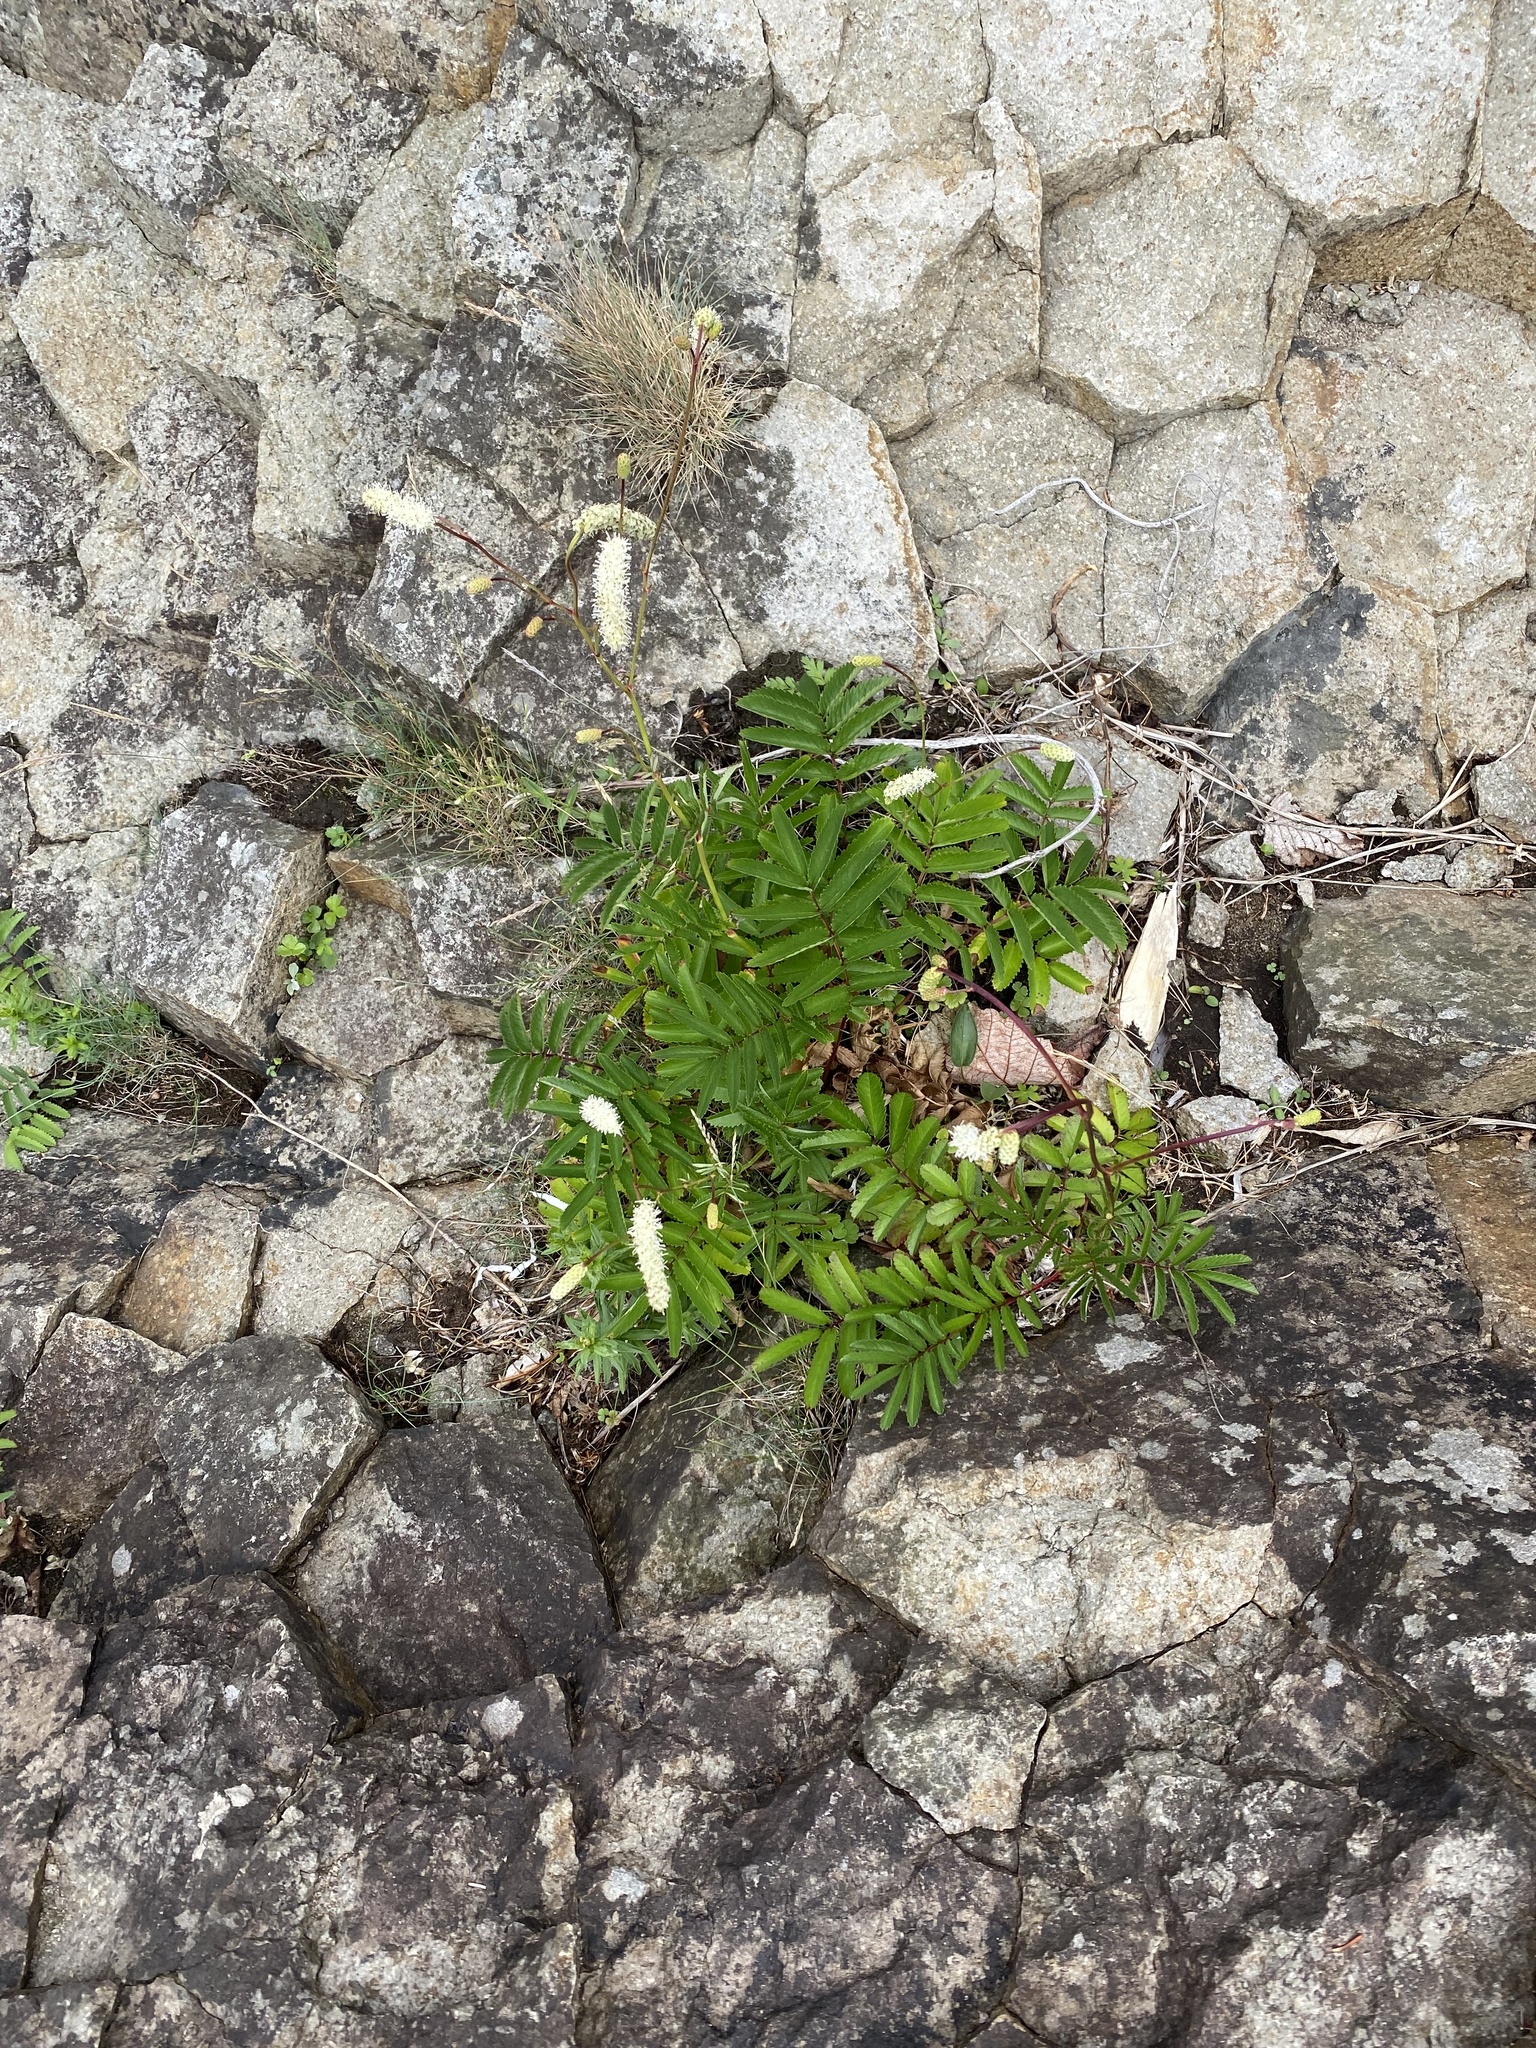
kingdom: Plantae
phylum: Tracheophyta
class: Magnoliopsida
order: Rosales
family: Rosaceae
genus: Poterium
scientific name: Poterium tenuifolium
